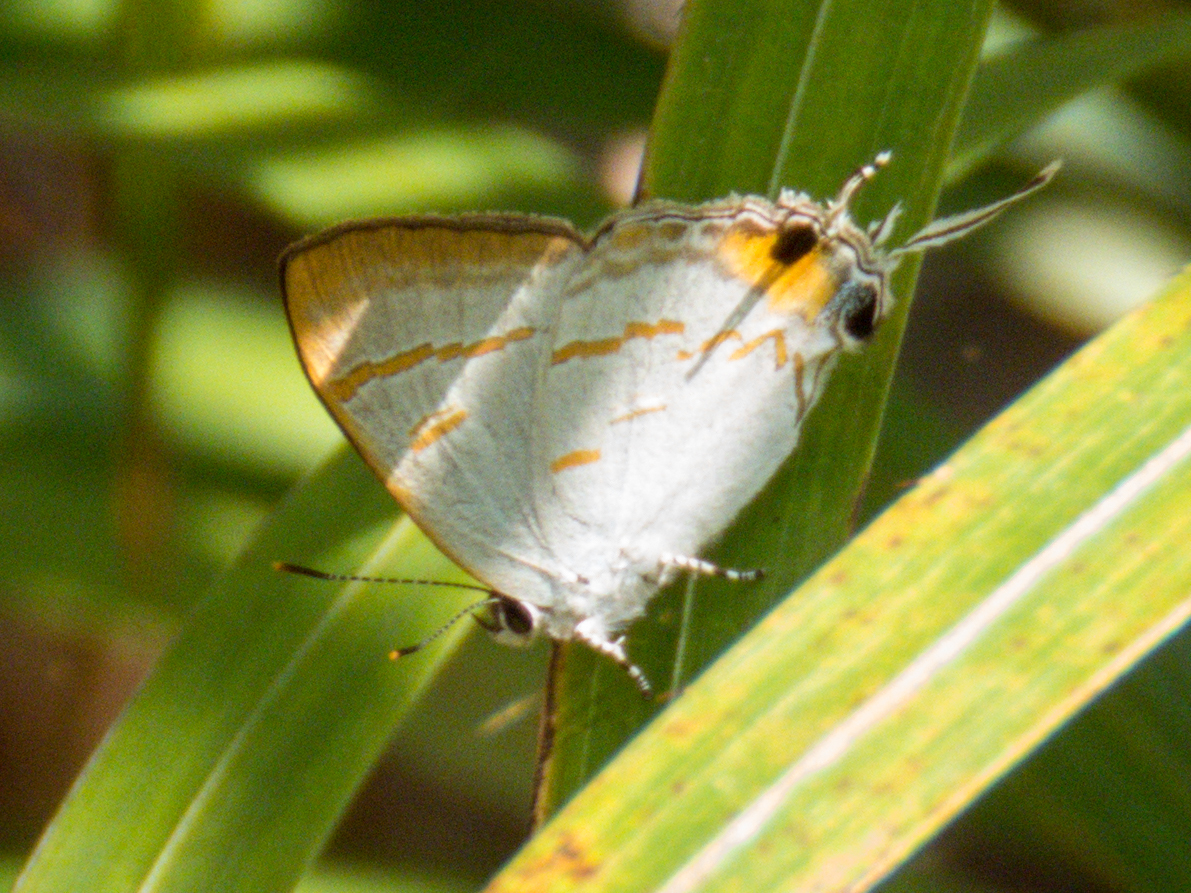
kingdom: Animalia
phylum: Arthropoda
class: Insecta
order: Lepidoptera
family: Lycaenidae
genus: Hypolycaena
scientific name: Hypolycaena thecloides
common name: Dark tit
